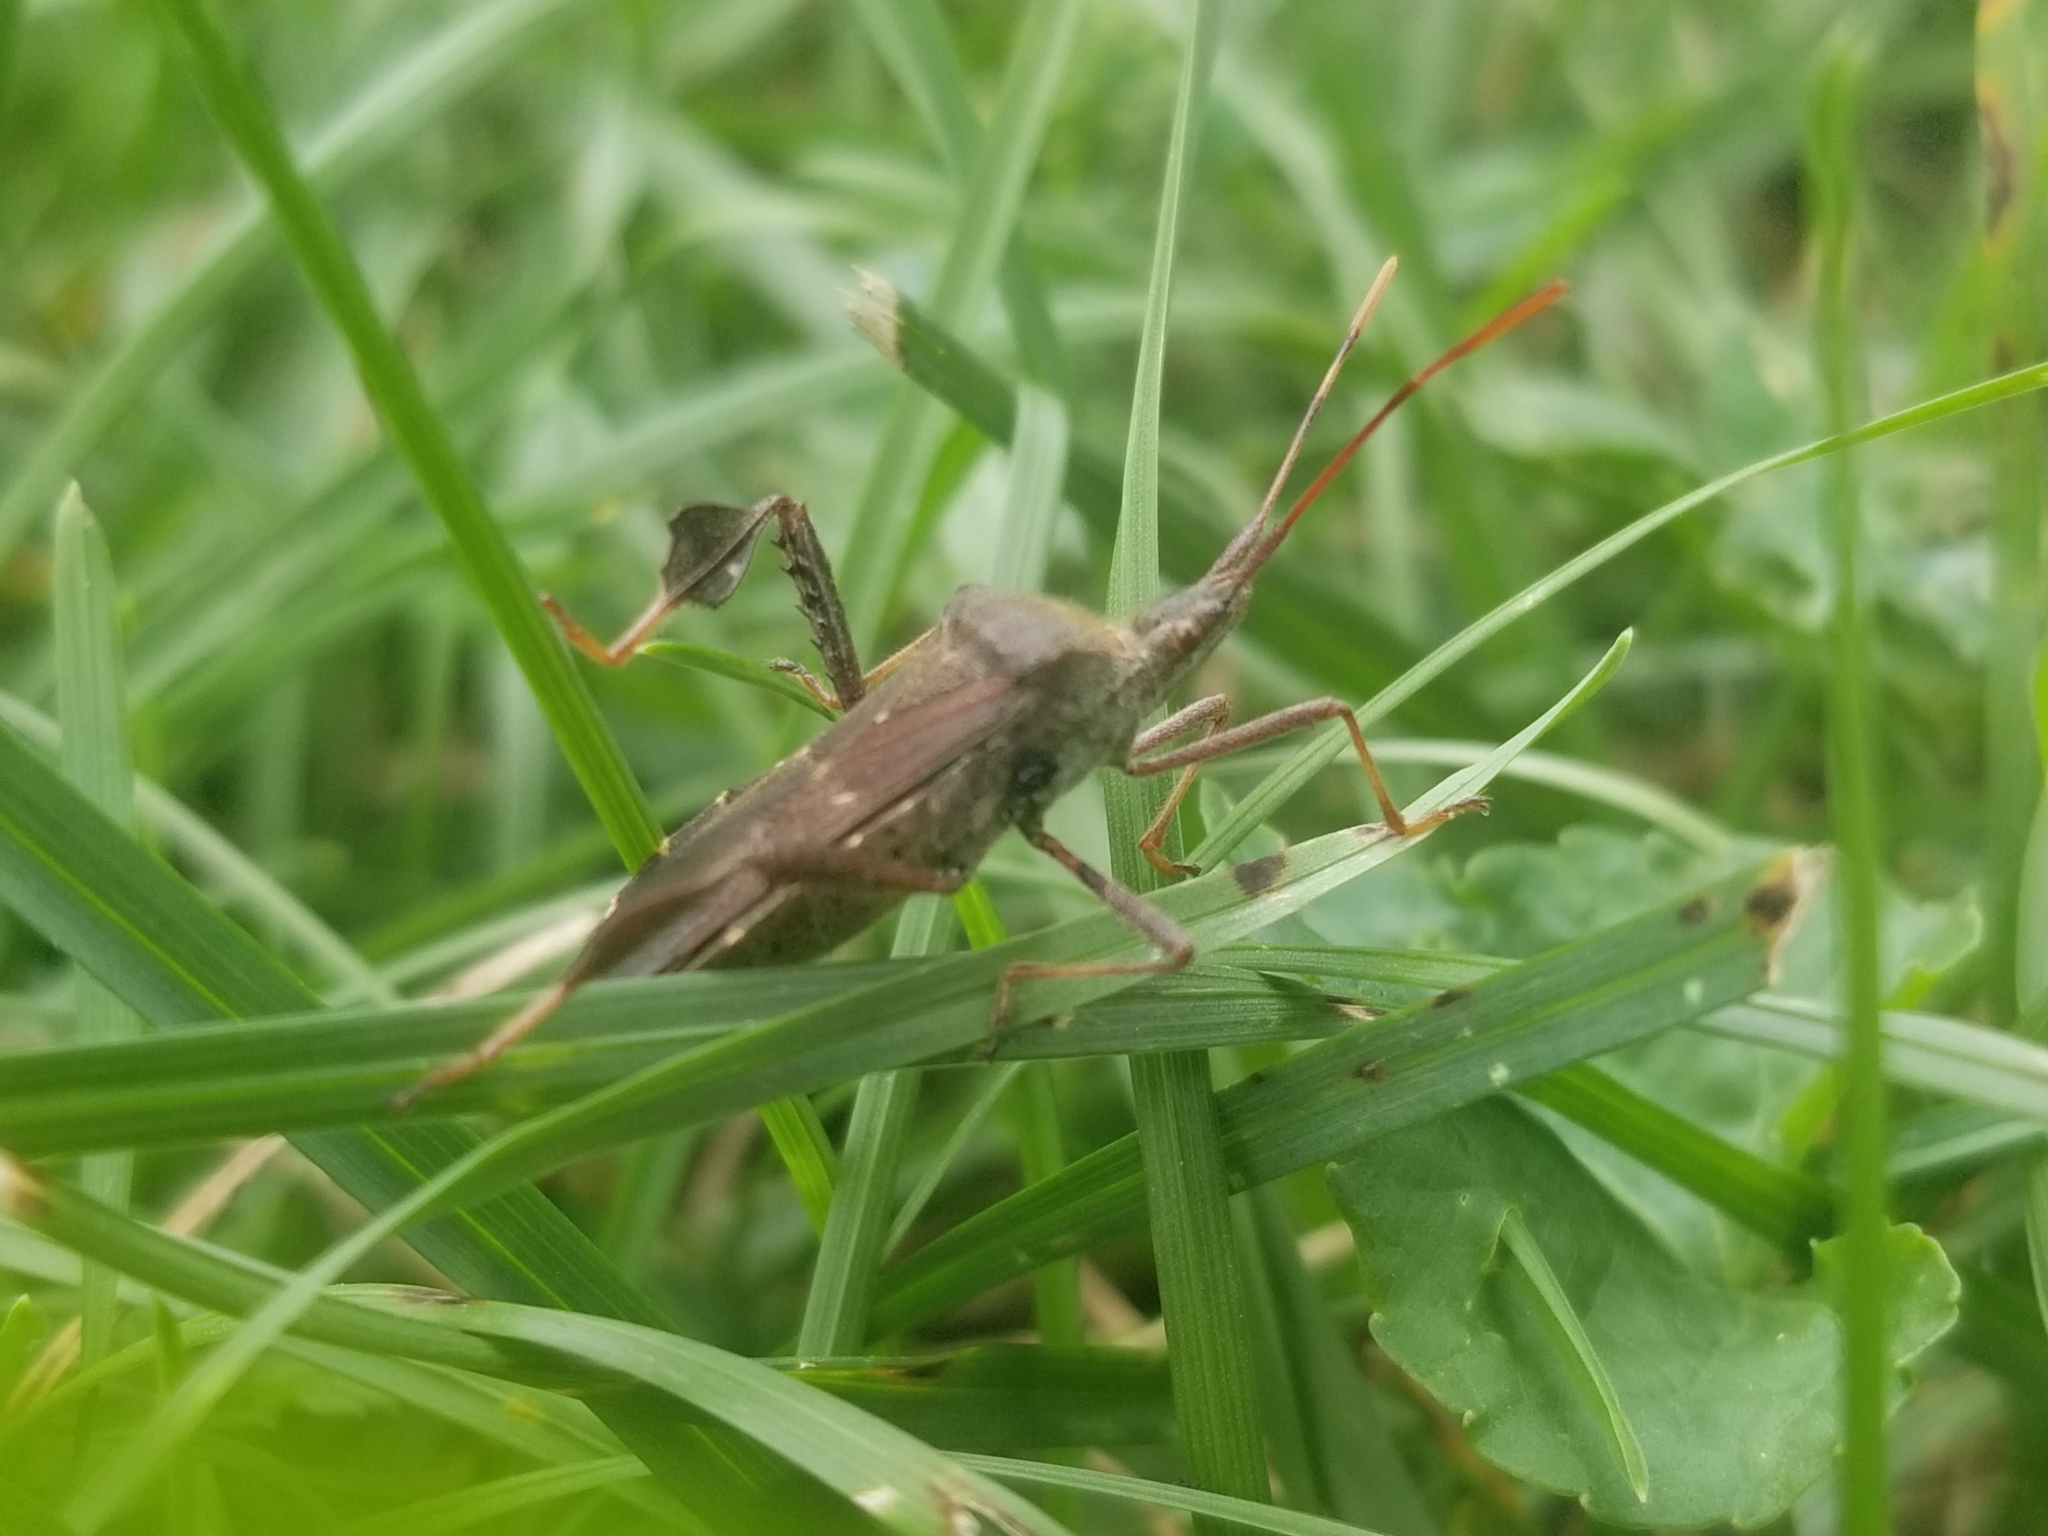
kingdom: Animalia
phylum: Arthropoda
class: Insecta
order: Hemiptera
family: Coreidae
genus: Leptoglossus
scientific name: Leptoglossus oppositus
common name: Northern leaf-footed bug
